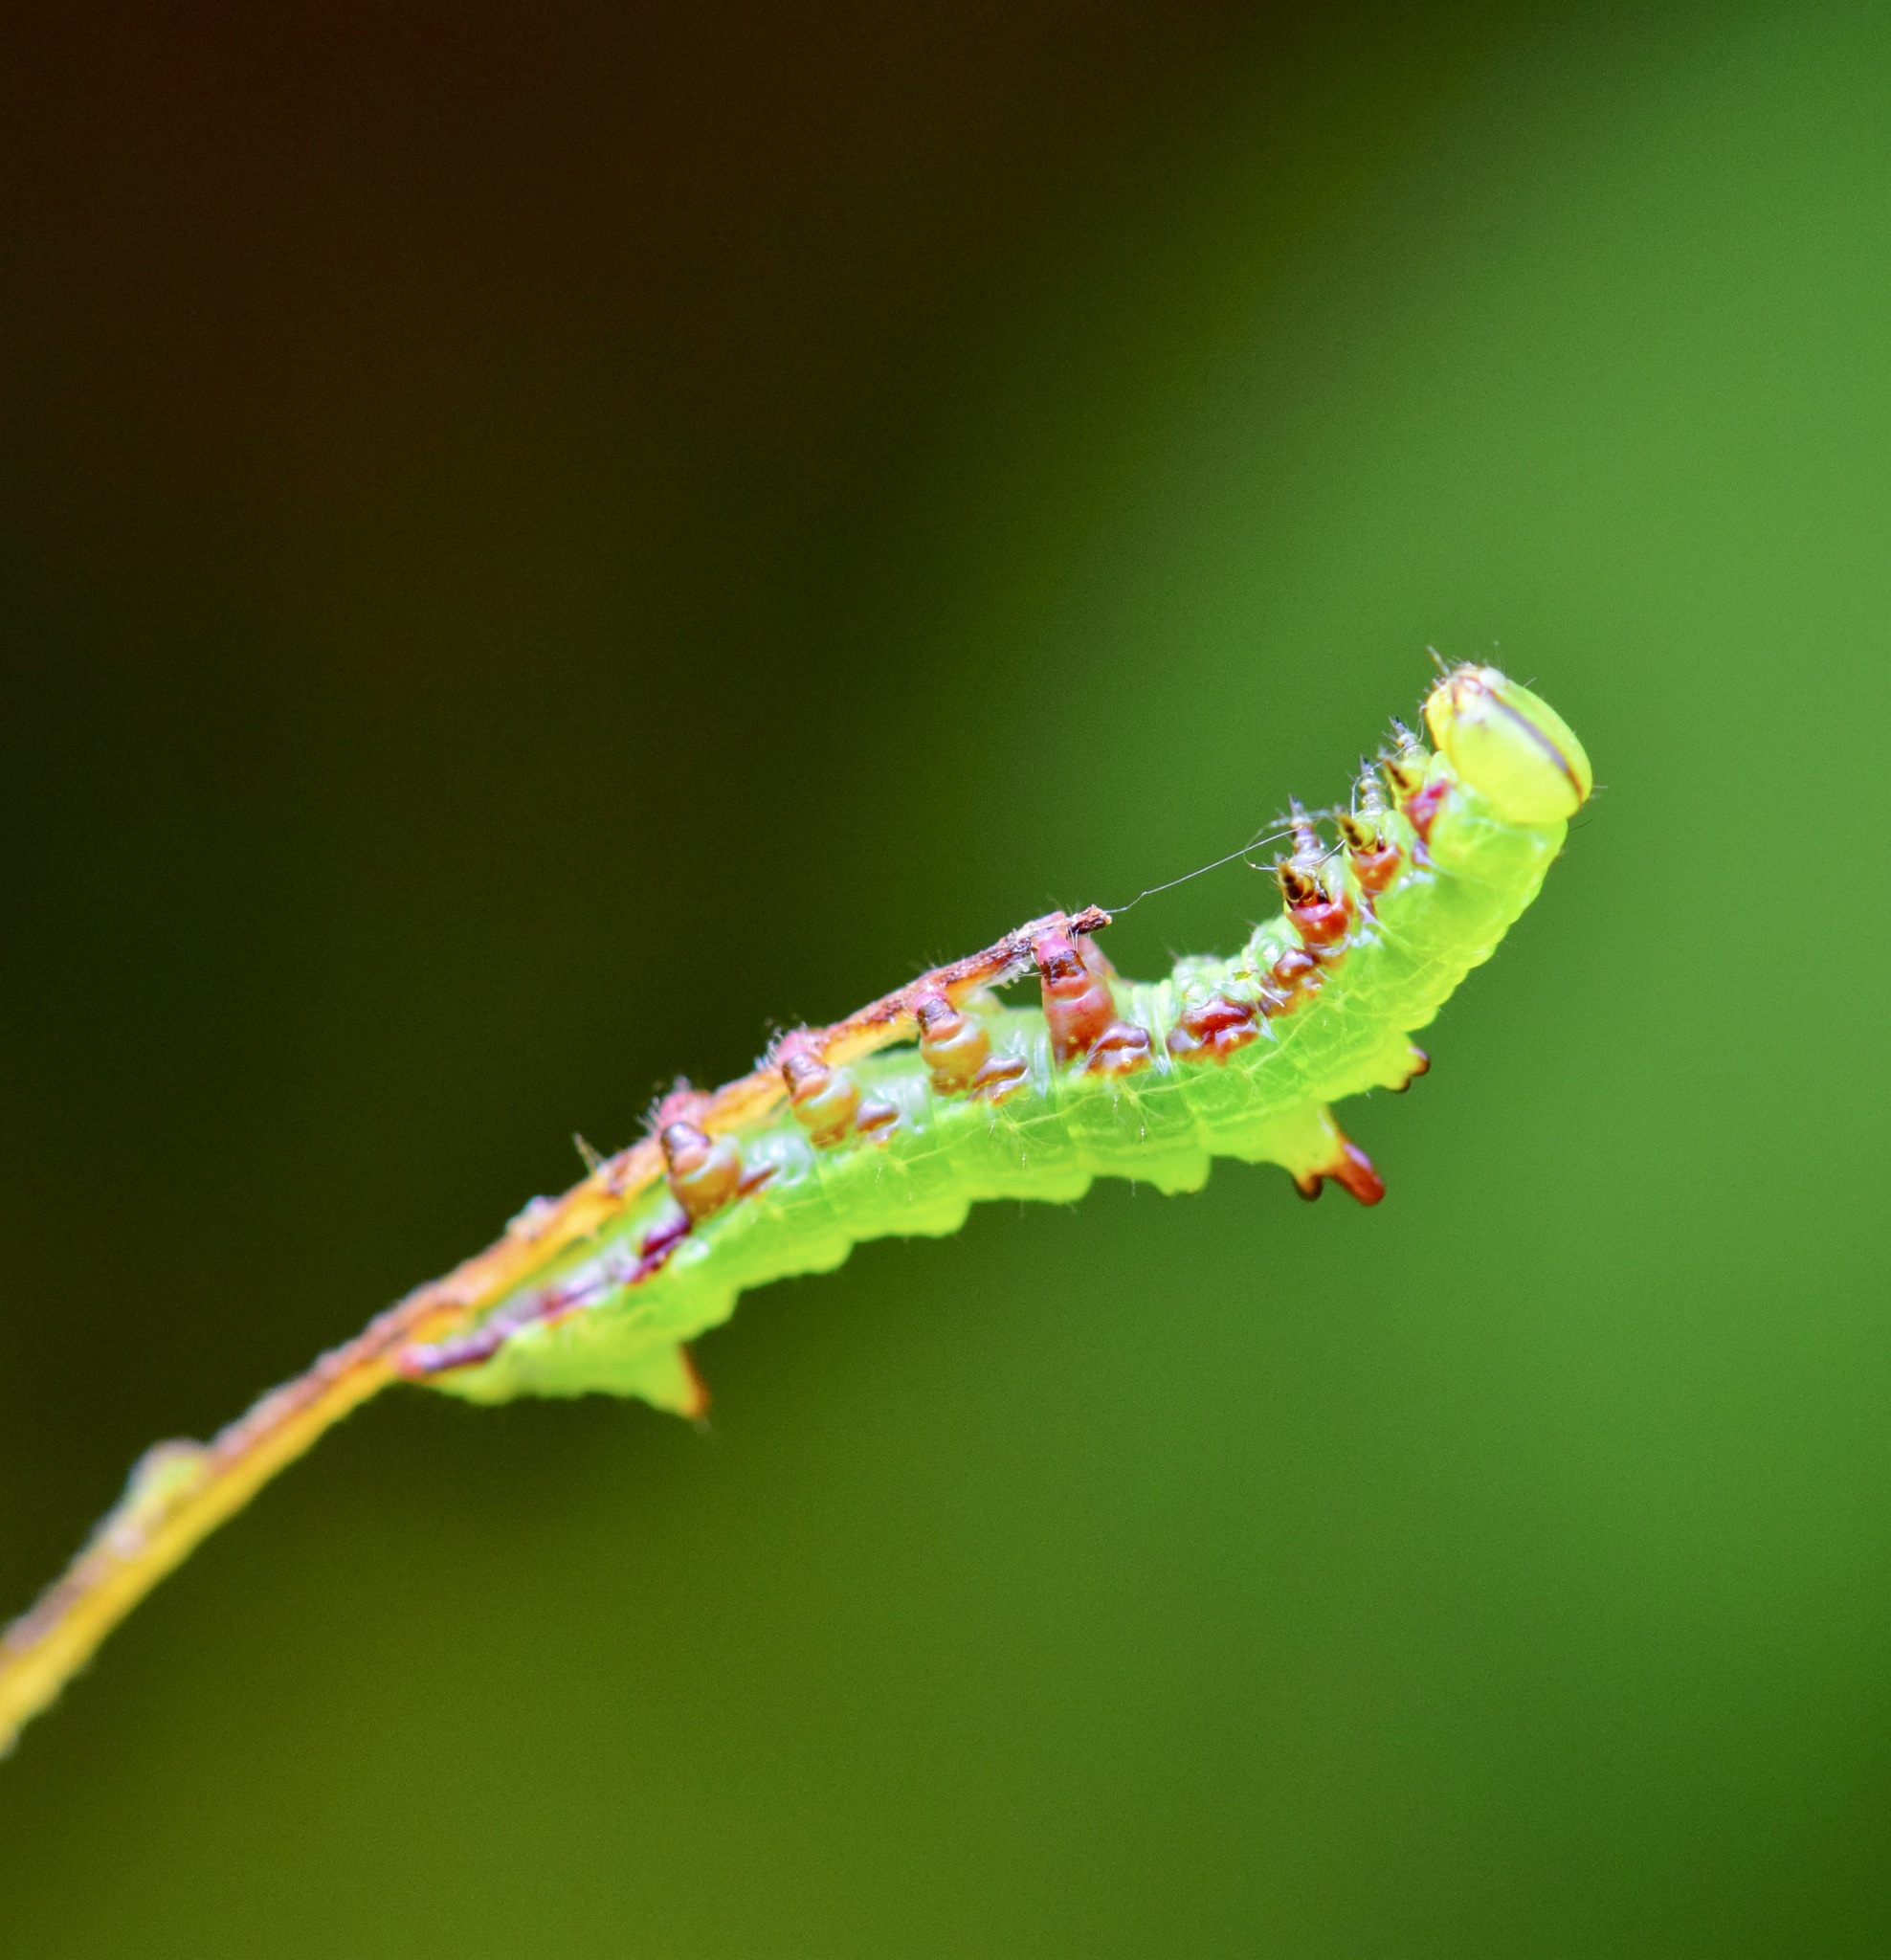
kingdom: Animalia
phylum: Arthropoda
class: Insecta
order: Lepidoptera
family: Notodontidae
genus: Nerice
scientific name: Nerice bidentata
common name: Double-toothed prominent
